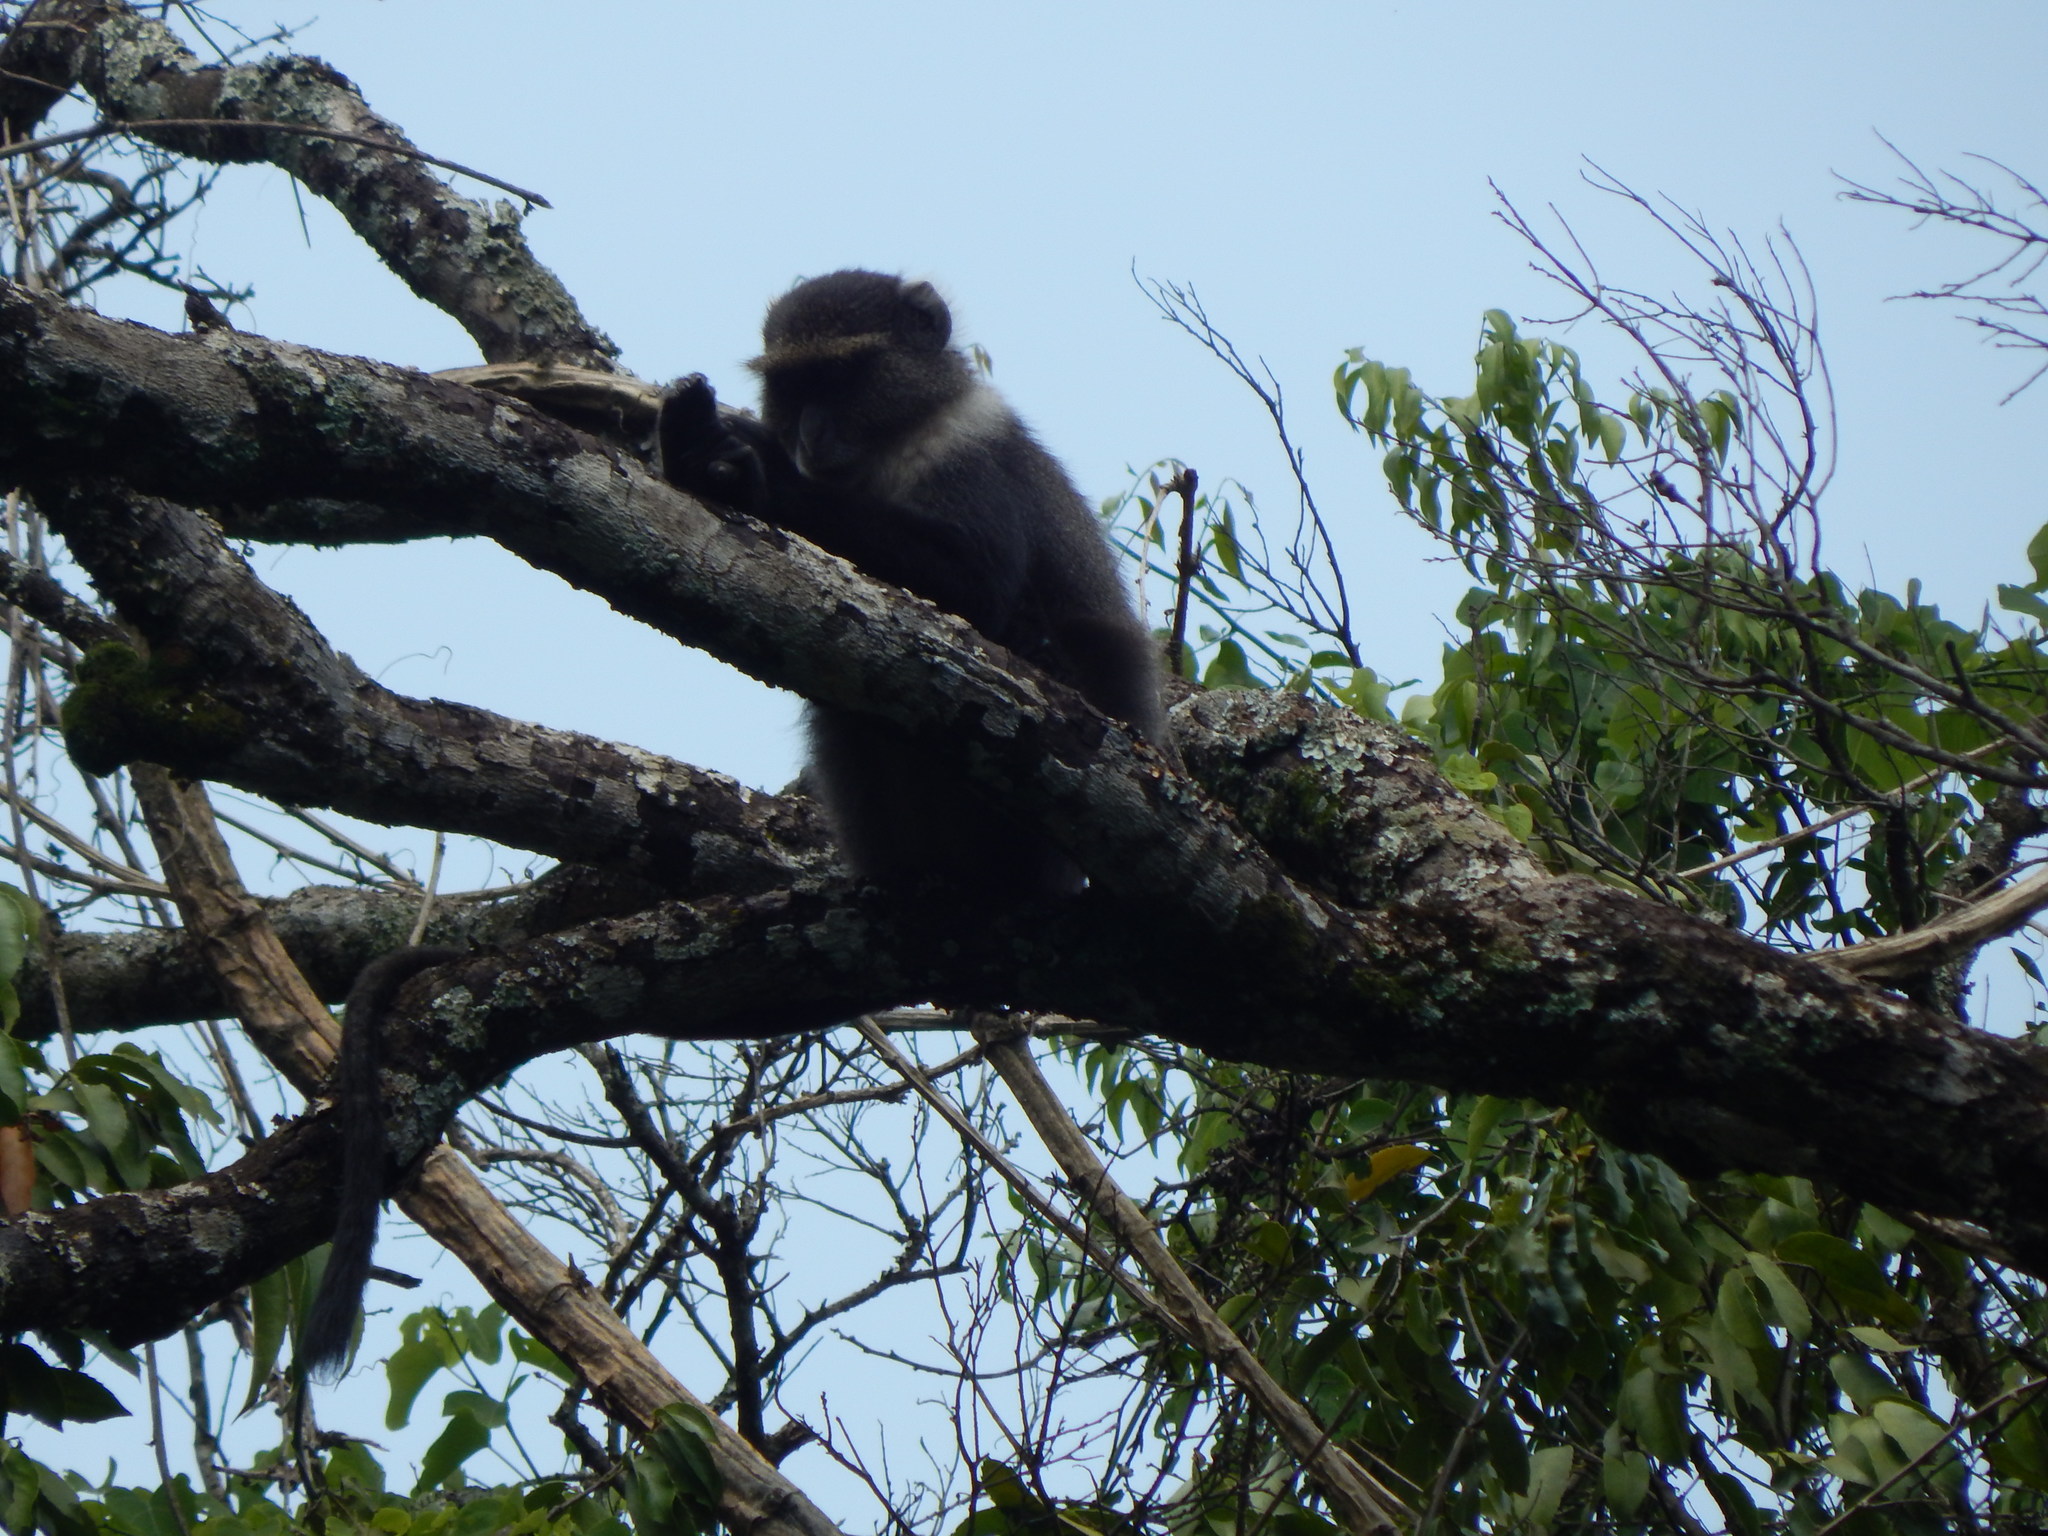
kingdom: Animalia
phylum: Chordata
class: Mammalia
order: Primates
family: Cercopithecidae
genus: Cercopithecus
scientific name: Cercopithecus mitis
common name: Blue monkey
